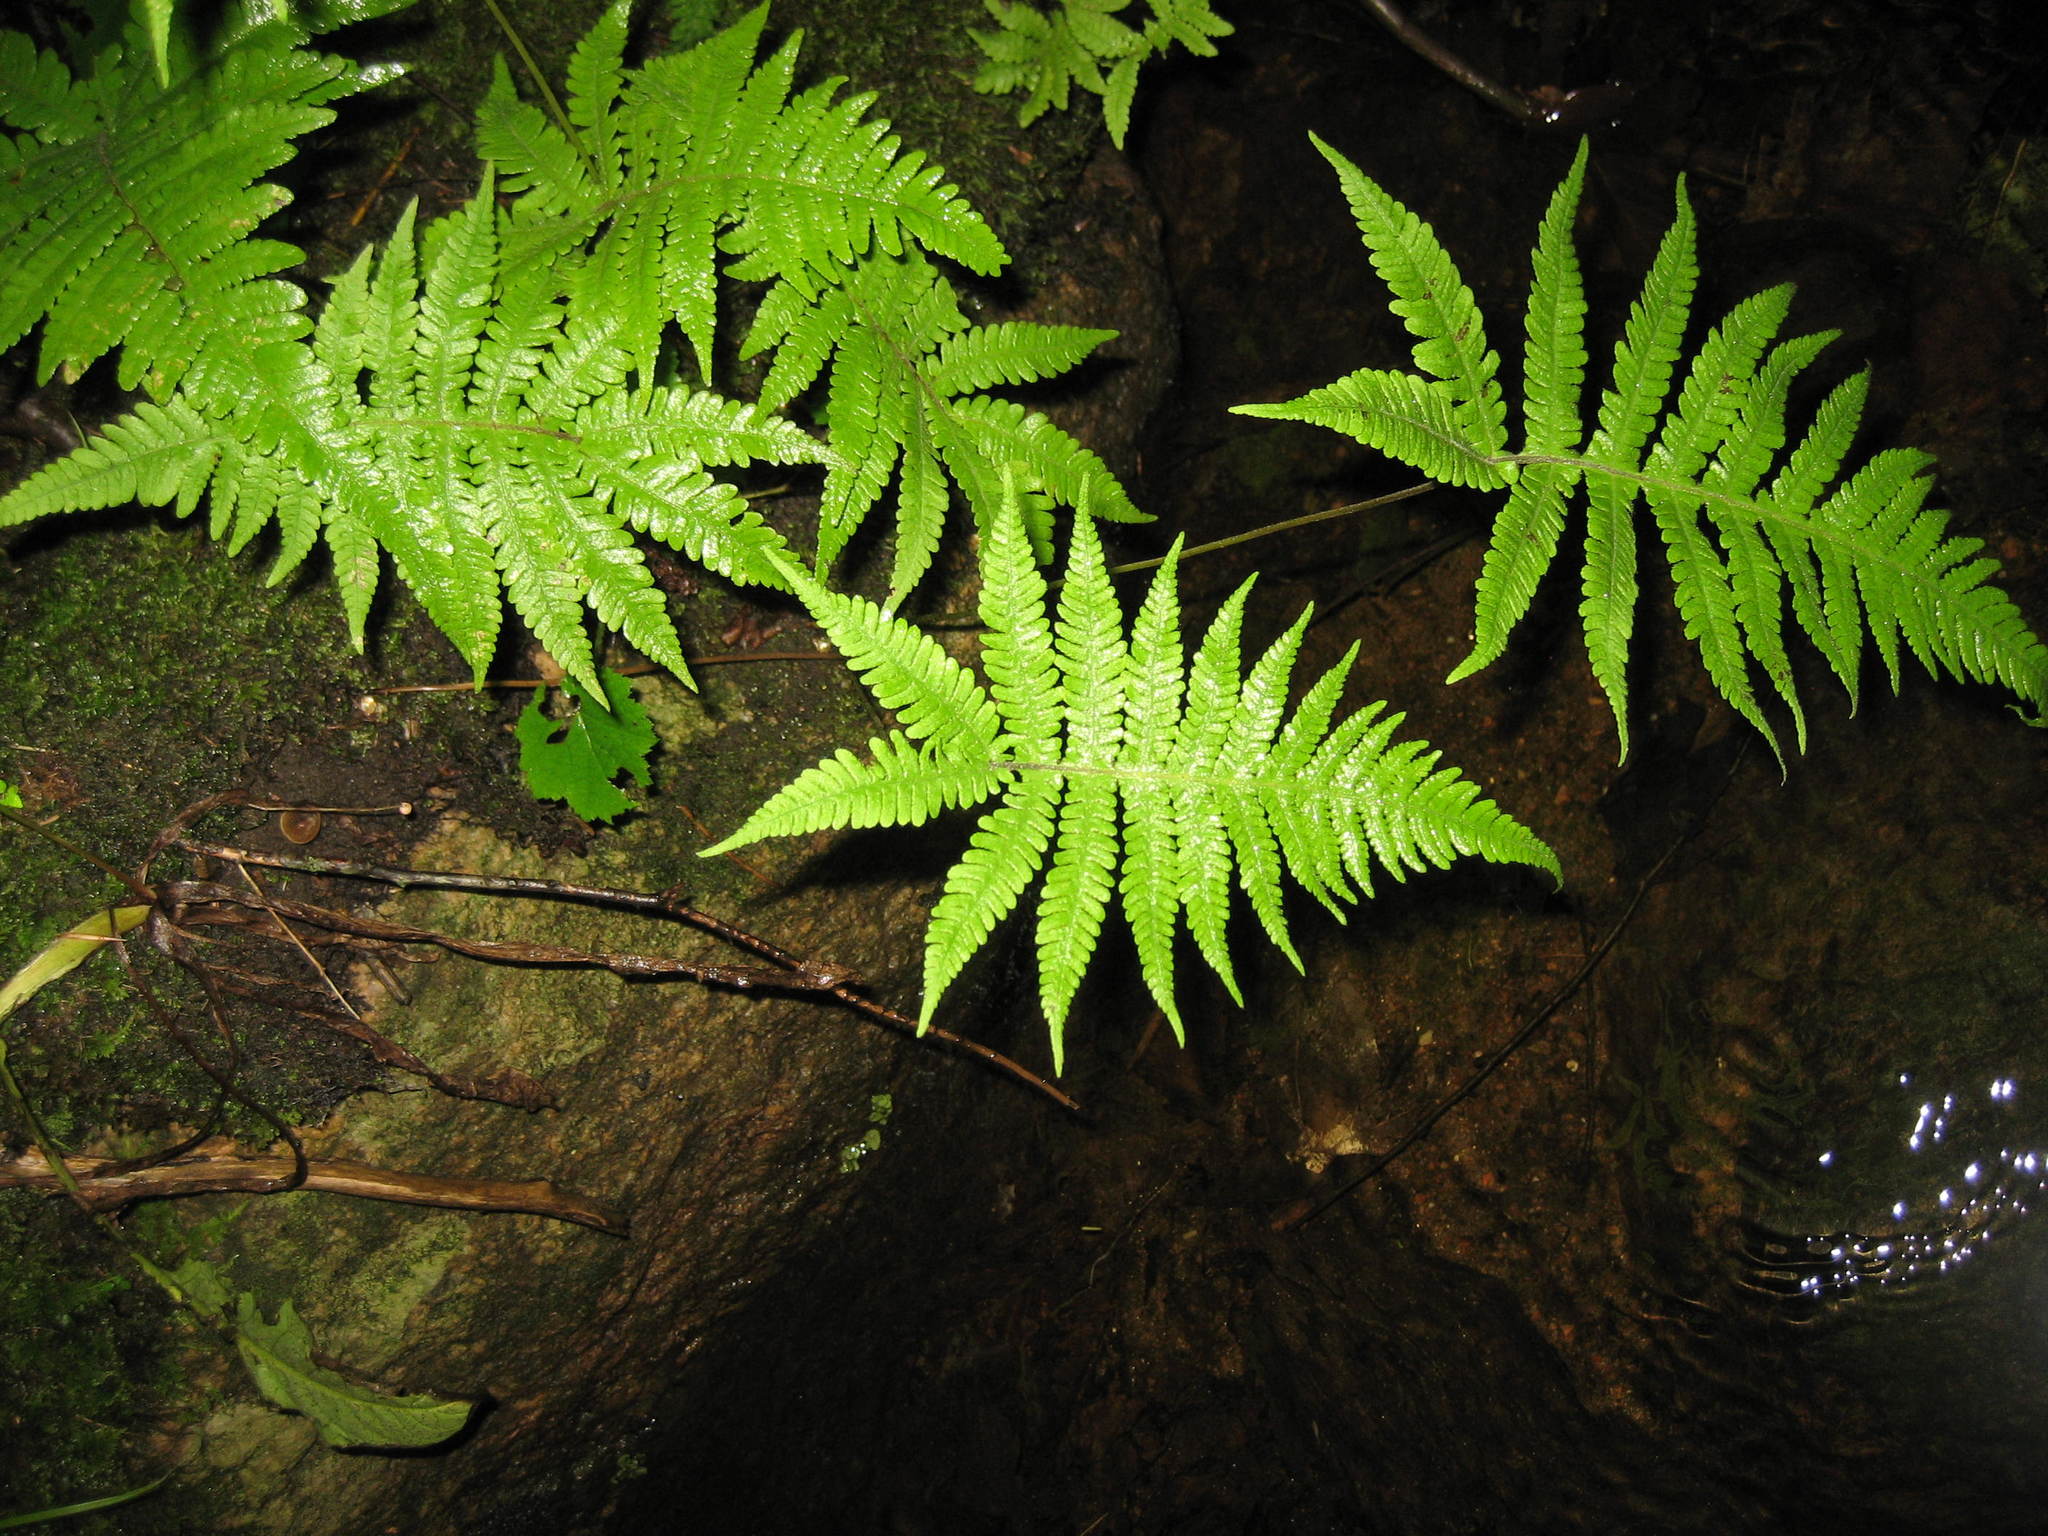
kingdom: Plantae
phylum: Tracheophyta
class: Polypodiopsida
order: Polypodiales
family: Thelypteridaceae
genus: Phegopteris
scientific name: Phegopteris connectilis
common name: Beech fern
